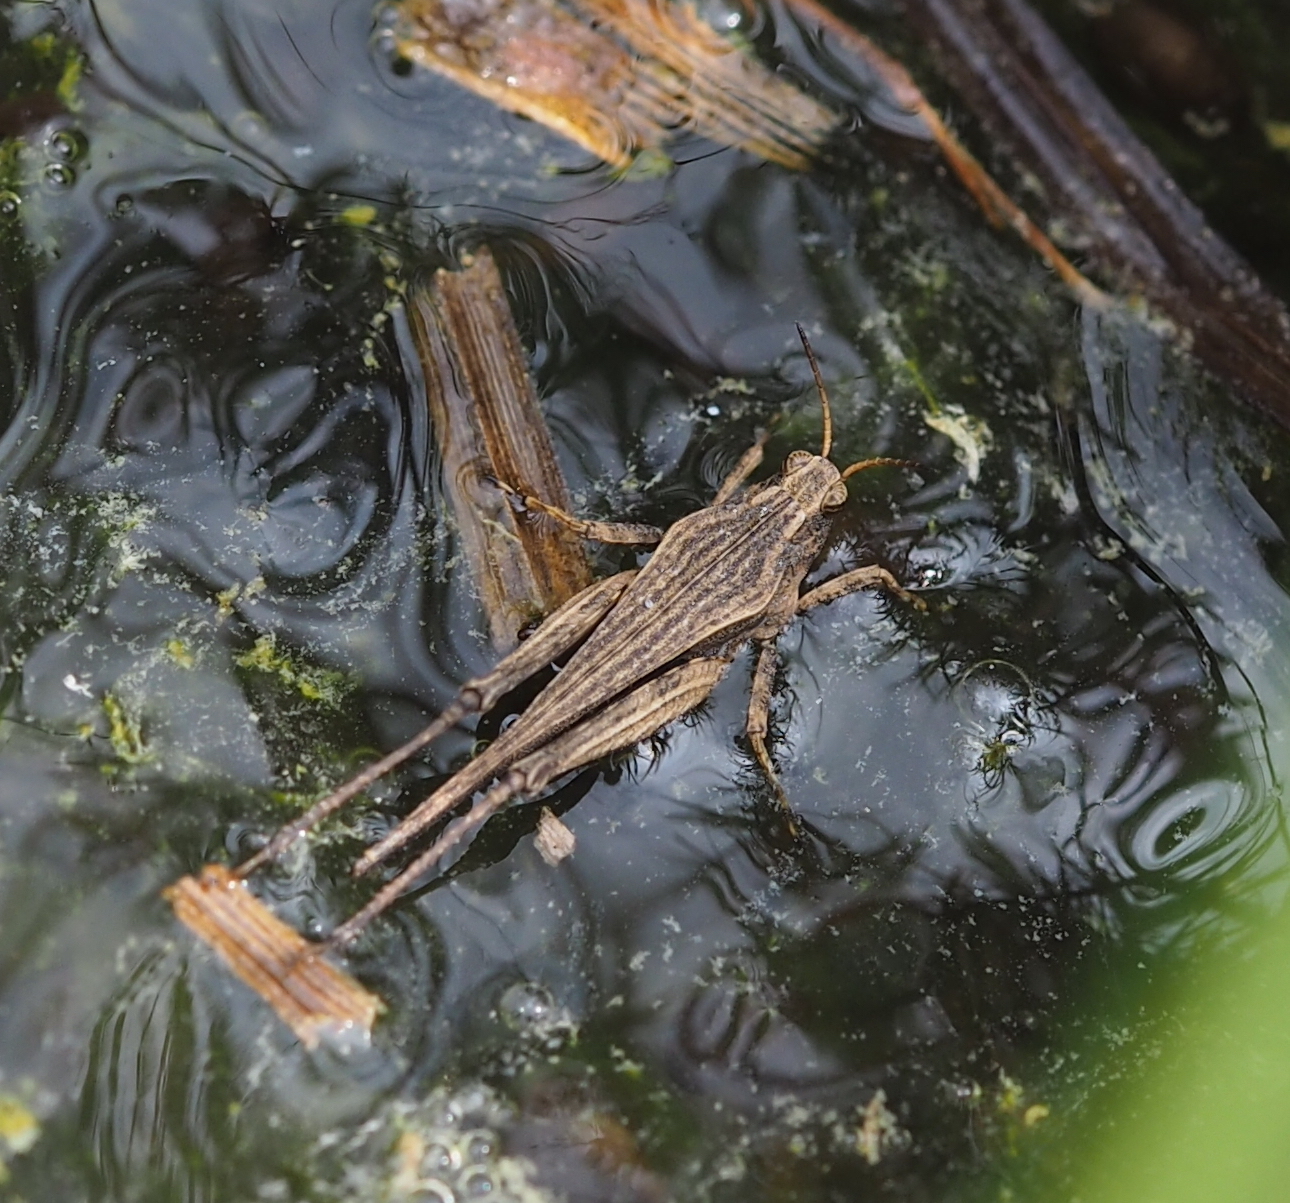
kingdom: Animalia
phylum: Arthropoda
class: Insecta
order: Orthoptera
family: Tetrigidae
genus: Tetrix
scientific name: Tetrix subulata
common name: Slender ground-hopper
